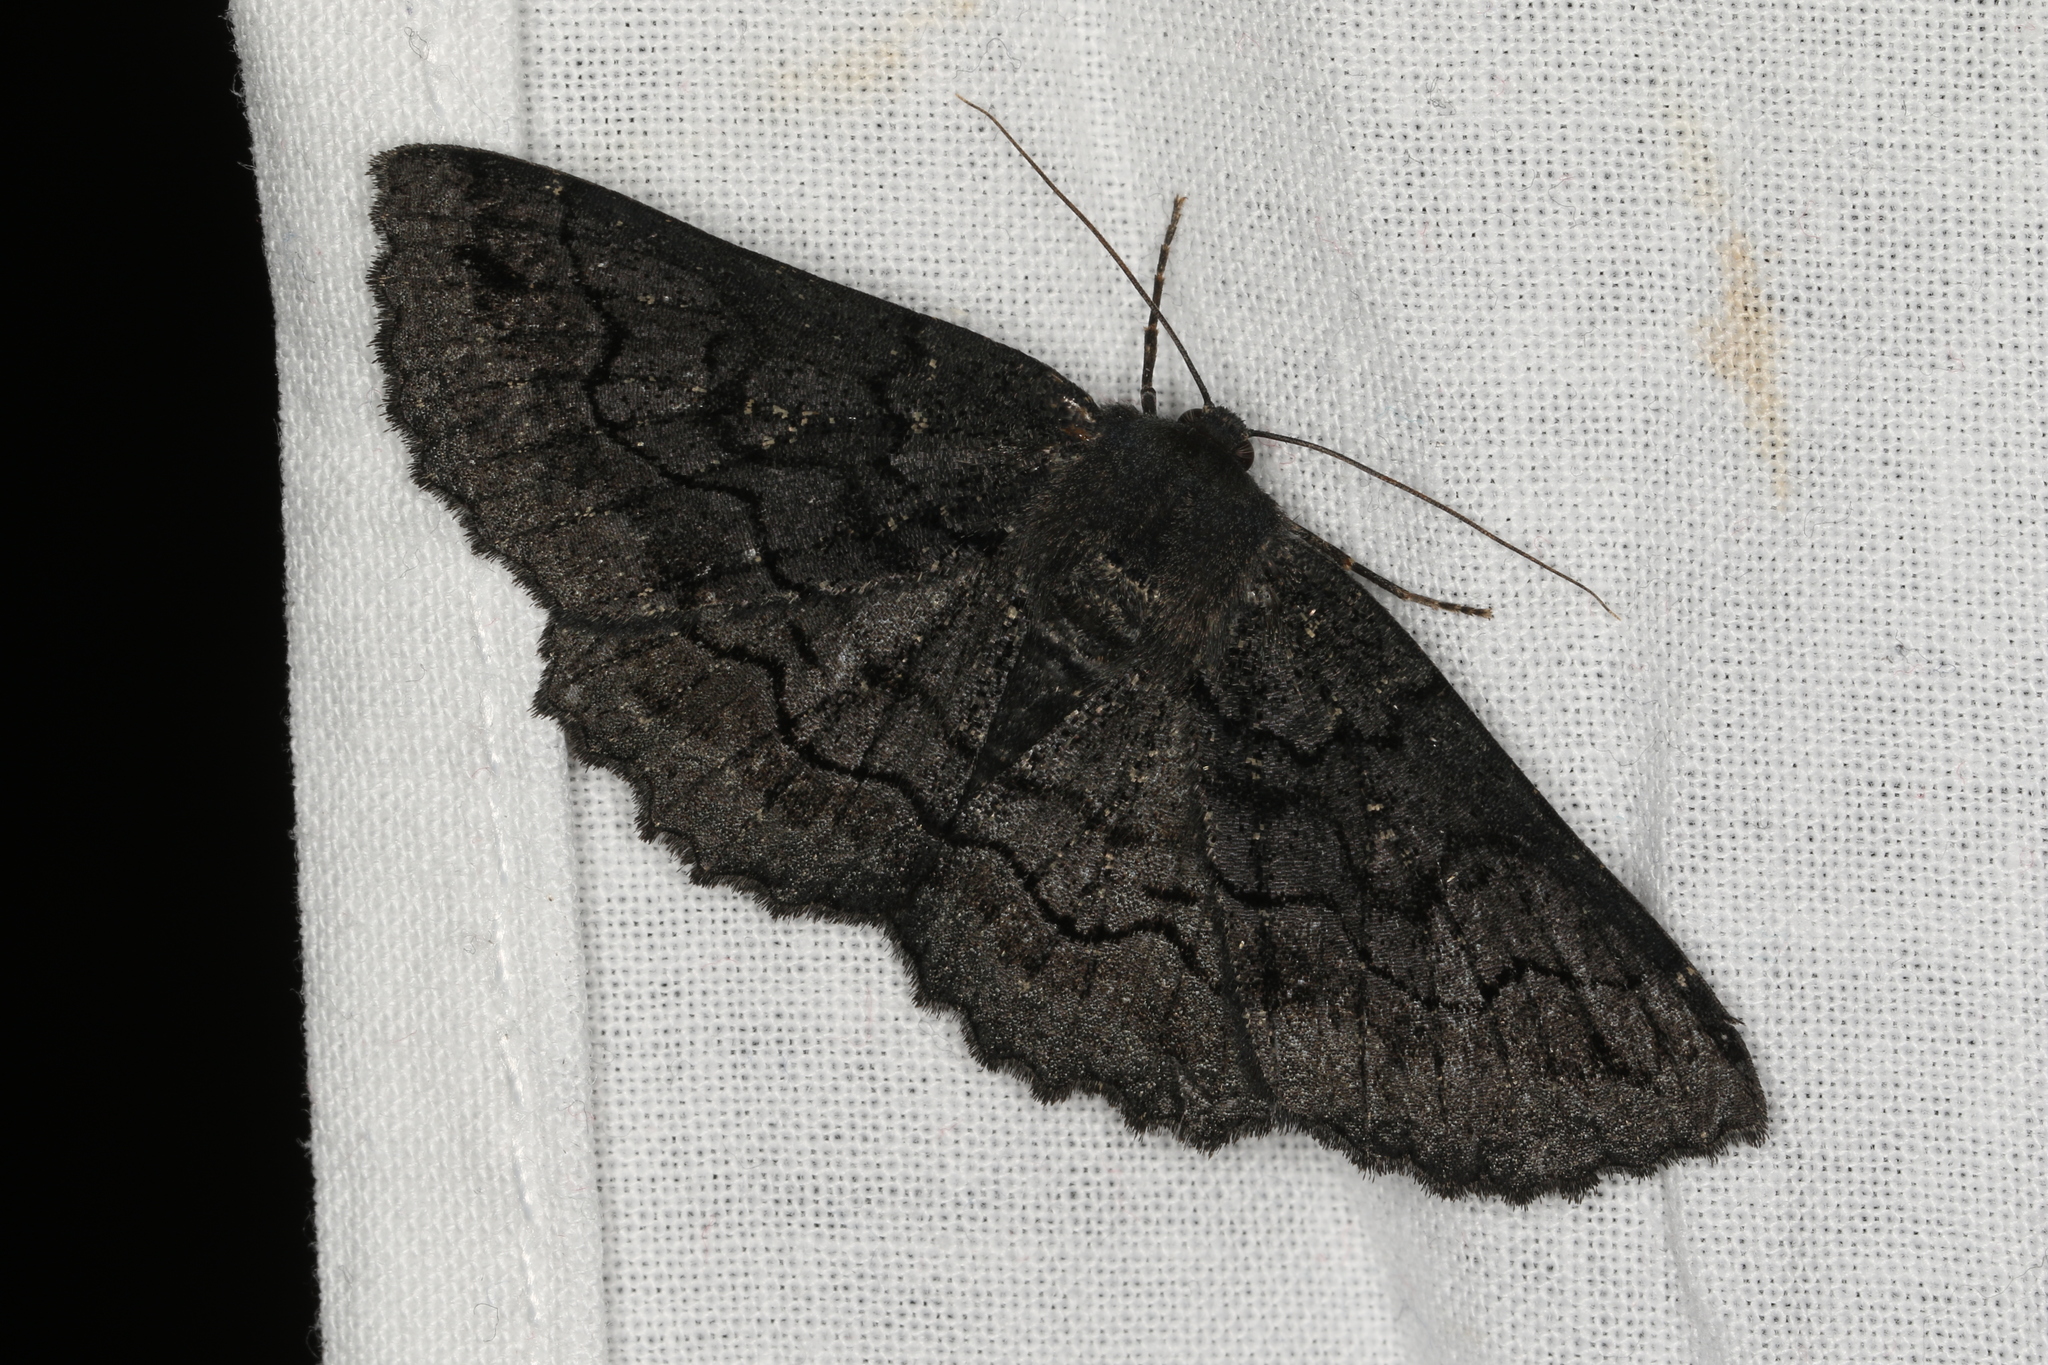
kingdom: Animalia
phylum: Arthropoda
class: Insecta
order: Lepidoptera
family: Geometridae
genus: Melanodes
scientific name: Melanodes anthracitaria
